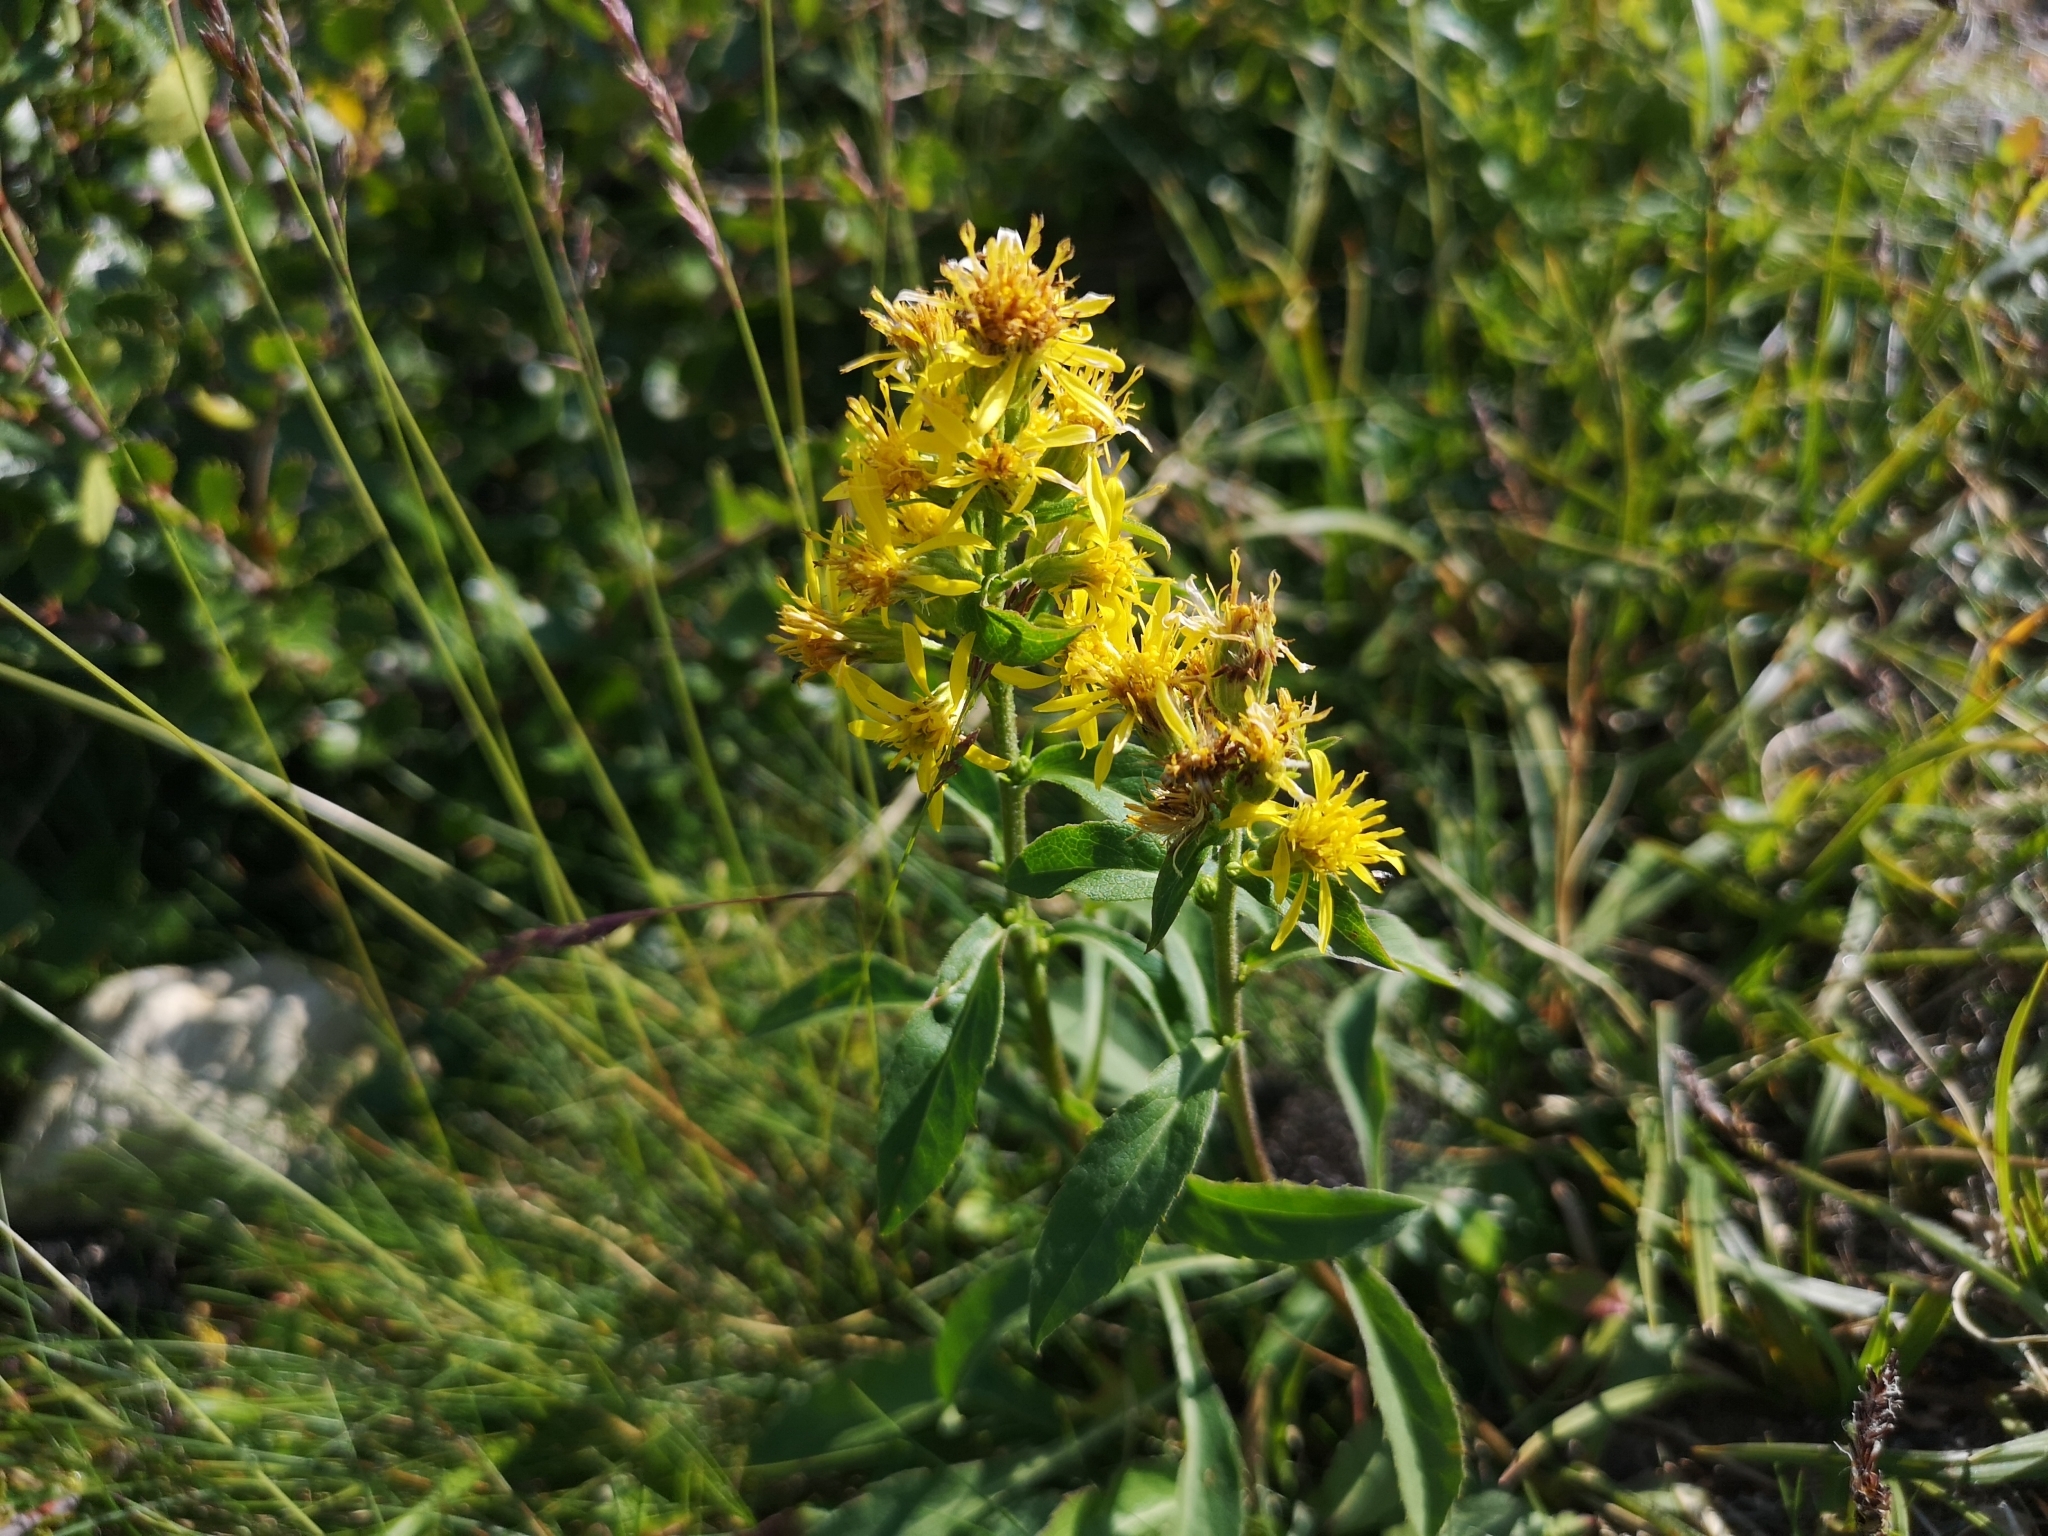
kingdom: Plantae
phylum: Tracheophyta
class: Magnoliopsida
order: Asterales
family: Asteraceae
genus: Solidago
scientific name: Solidago virgaurea
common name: Goldenrod
